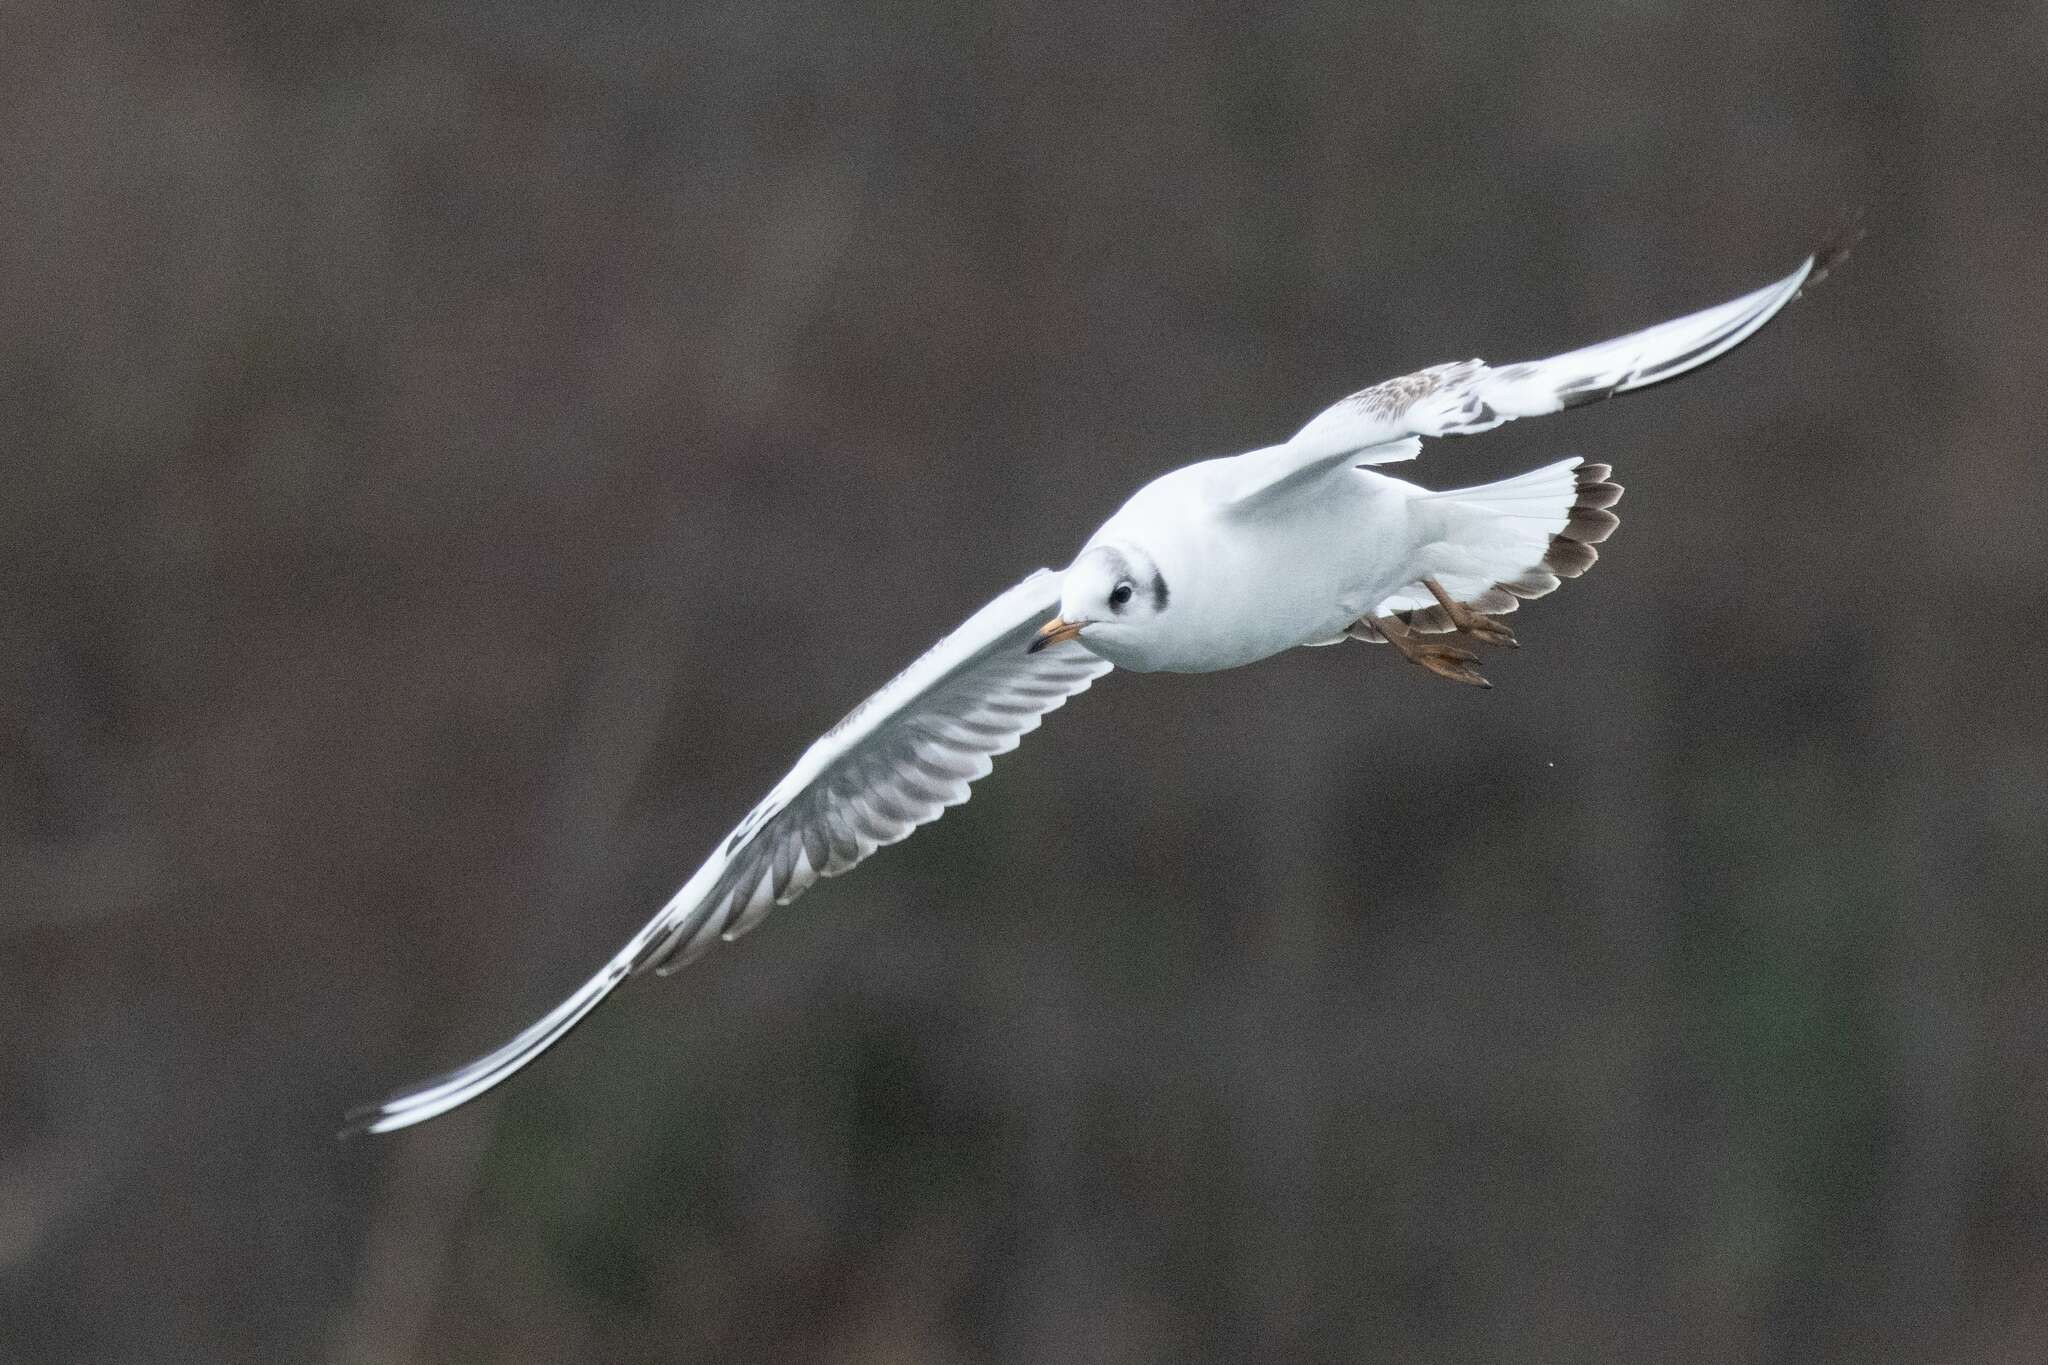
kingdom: Animalia
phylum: Chordata
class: Aves
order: Charadriiformes
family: Laridae
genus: Chroicocephalus
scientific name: Chroicocephalus ridibundus
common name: Black-headed gull
